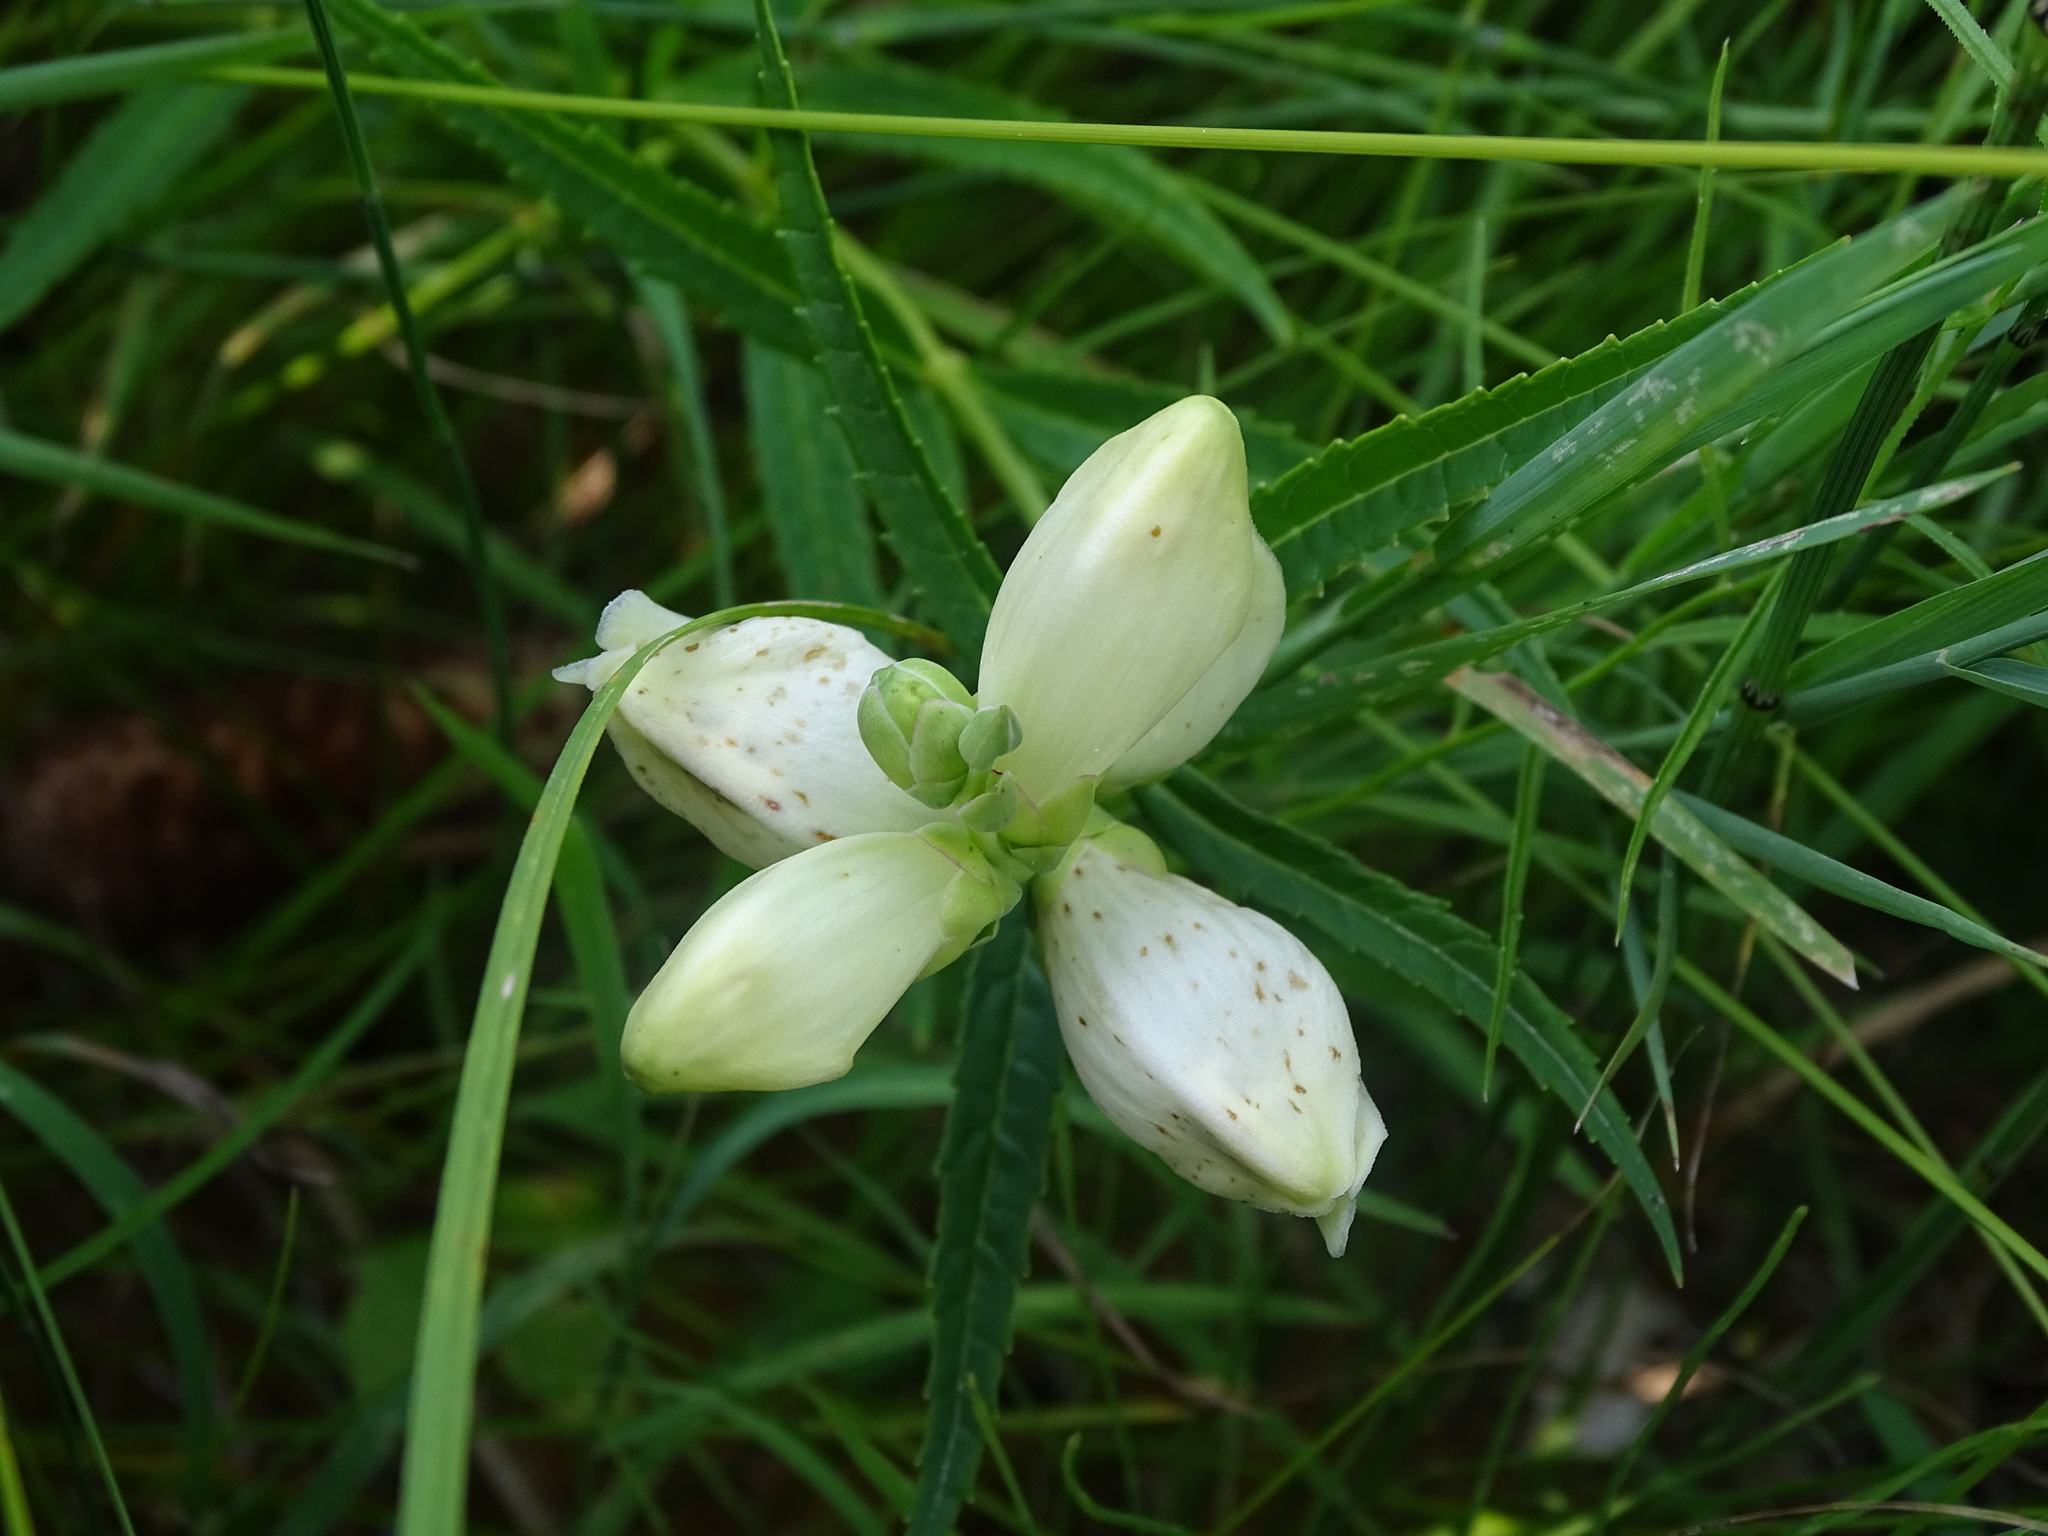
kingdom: Plantae
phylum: Tracheophyta
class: Magnoliopsida
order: Lamiales
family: Plantaginaceae
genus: Chelone
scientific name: Chelone glabra
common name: Snakehead
